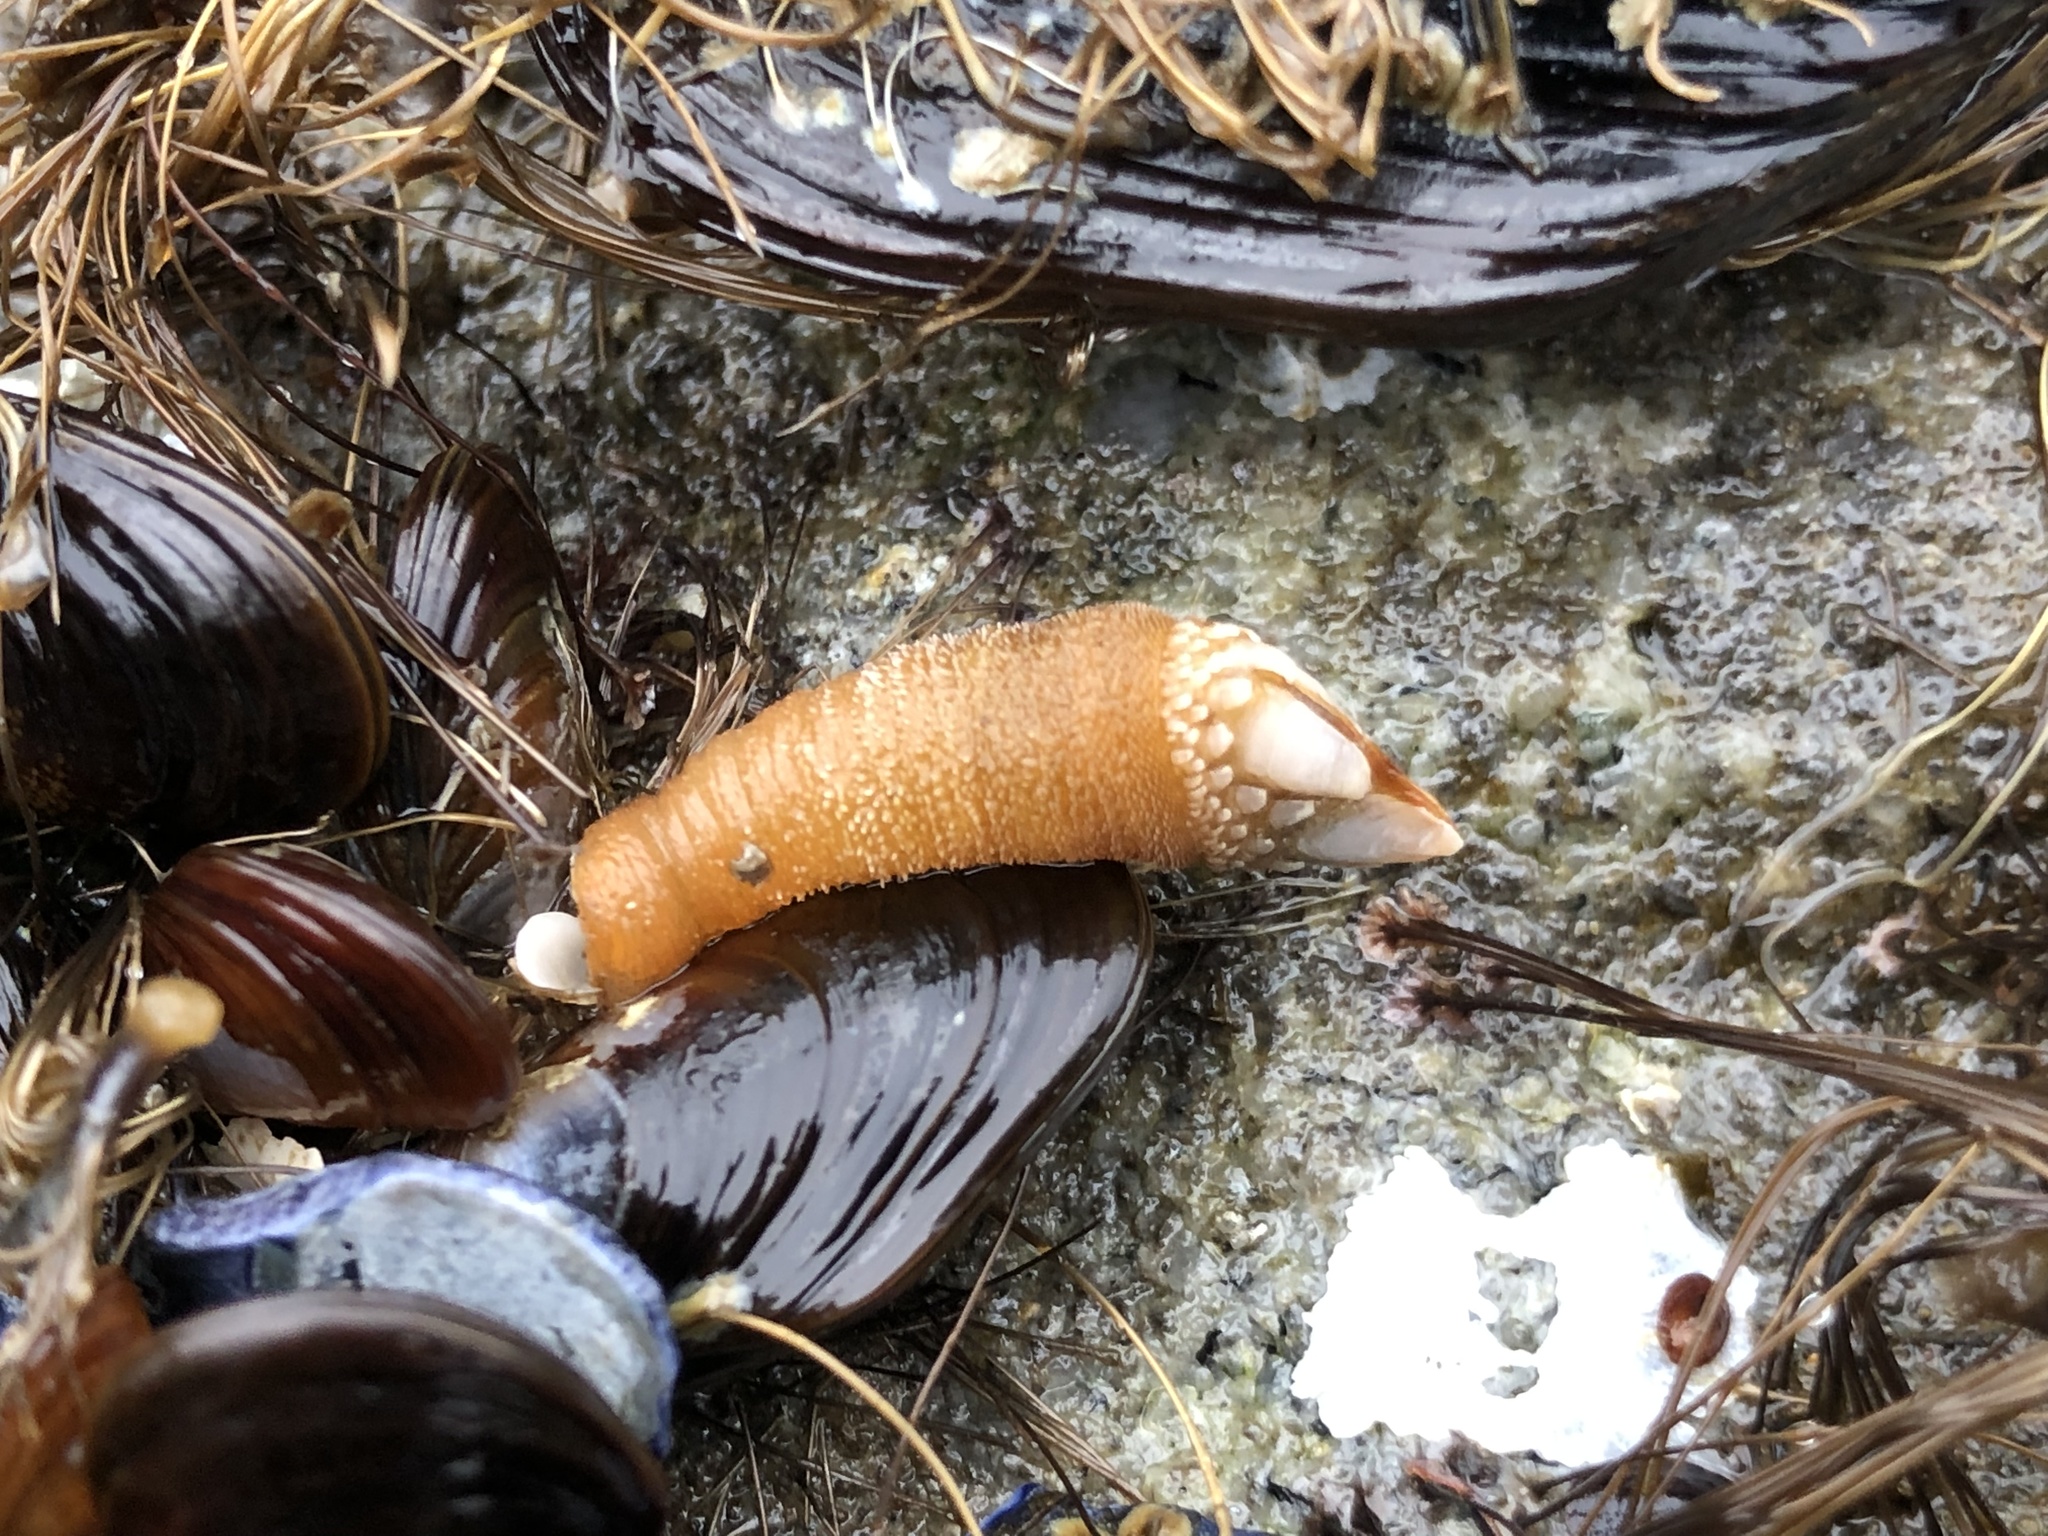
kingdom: Animalia
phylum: Arthropoda
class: Maxillopoda
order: Pedunculata
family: Pollicipedidae
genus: Pollicipes
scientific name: Pollicipes polymerus
